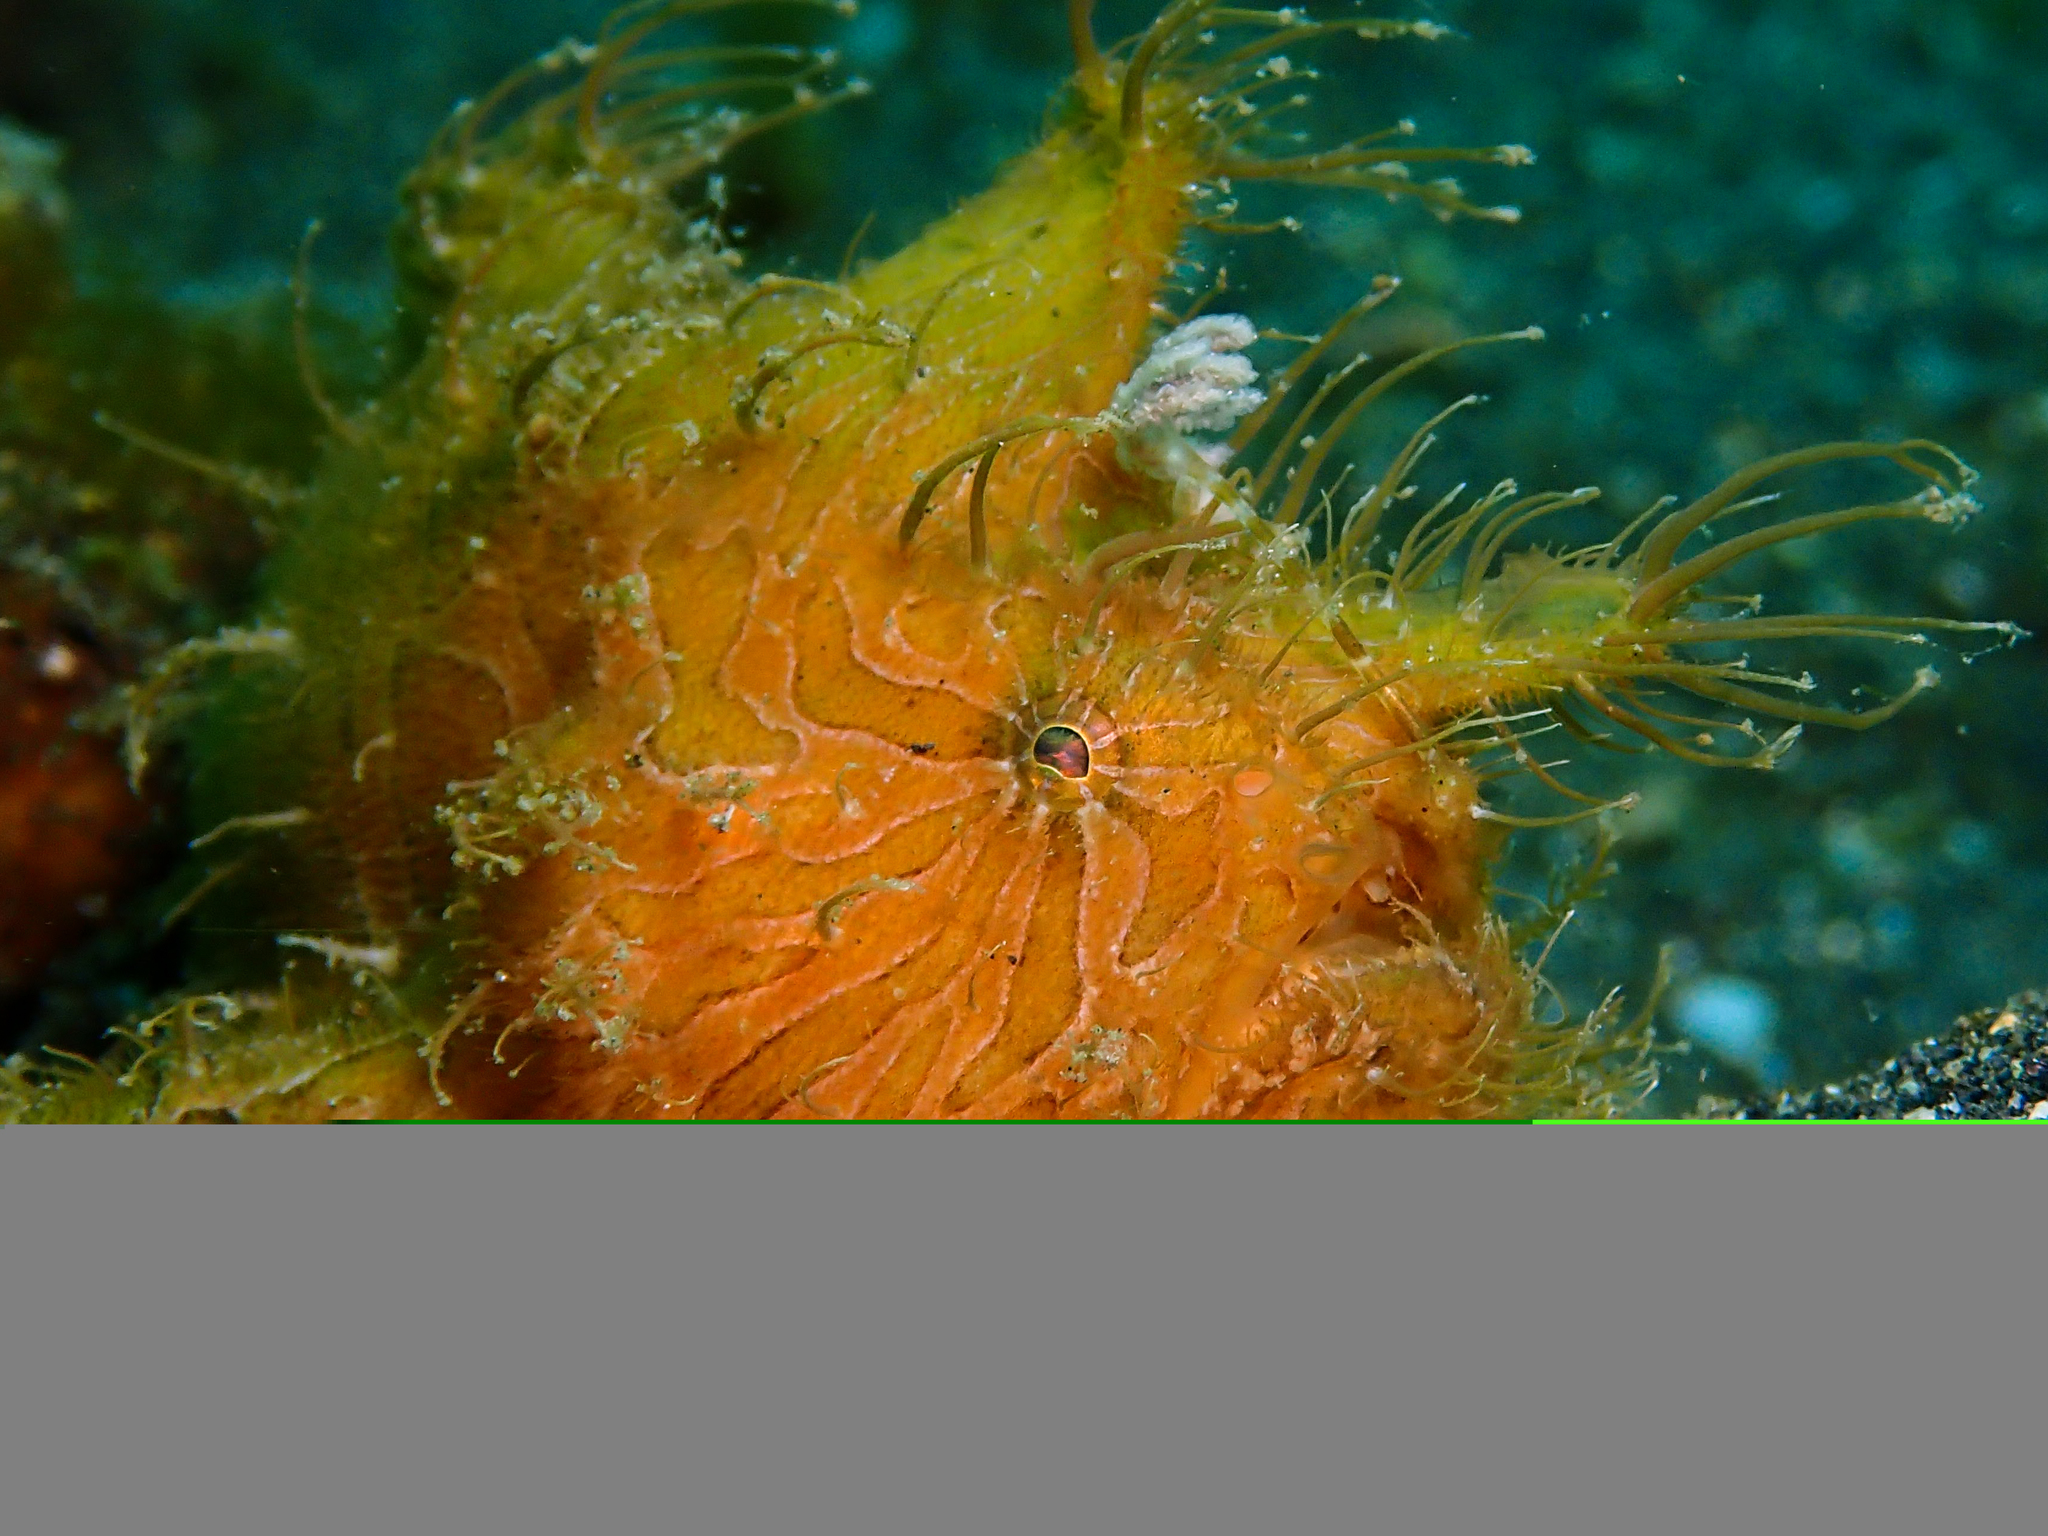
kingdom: Animalia
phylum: Chordata
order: Lophiiformes
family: Antennariidae
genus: Antennarius
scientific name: Antennarius striatus
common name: Striated frogfish
